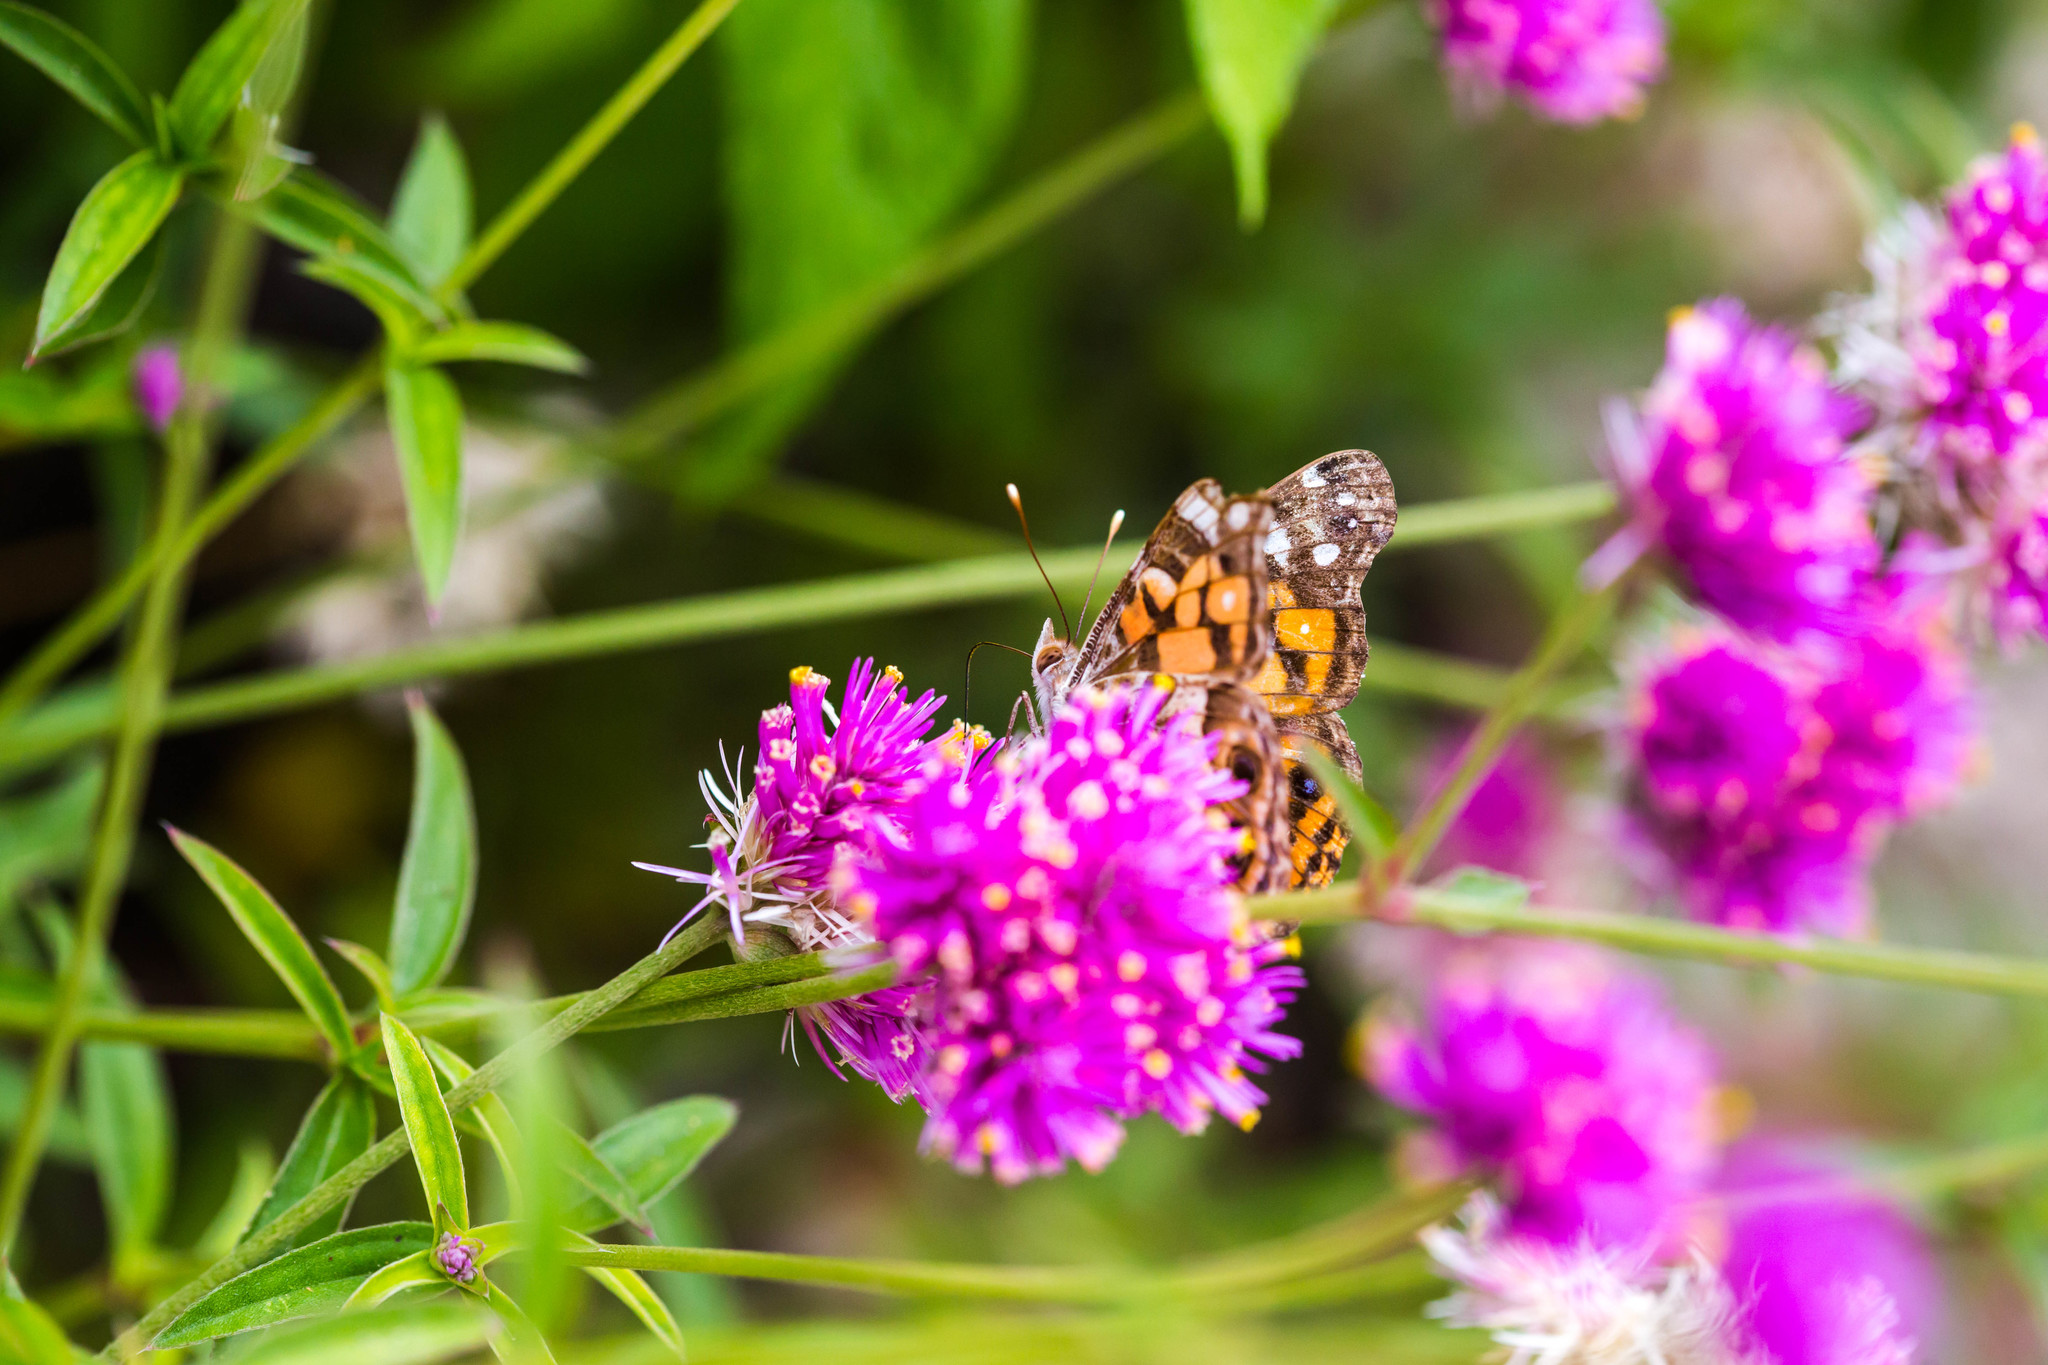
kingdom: Animalia
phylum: Arthropoda
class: Insecta
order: Lepidoptera
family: Nymphalidae
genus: Vanessa
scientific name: Vanessa virginiensis
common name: American lady
